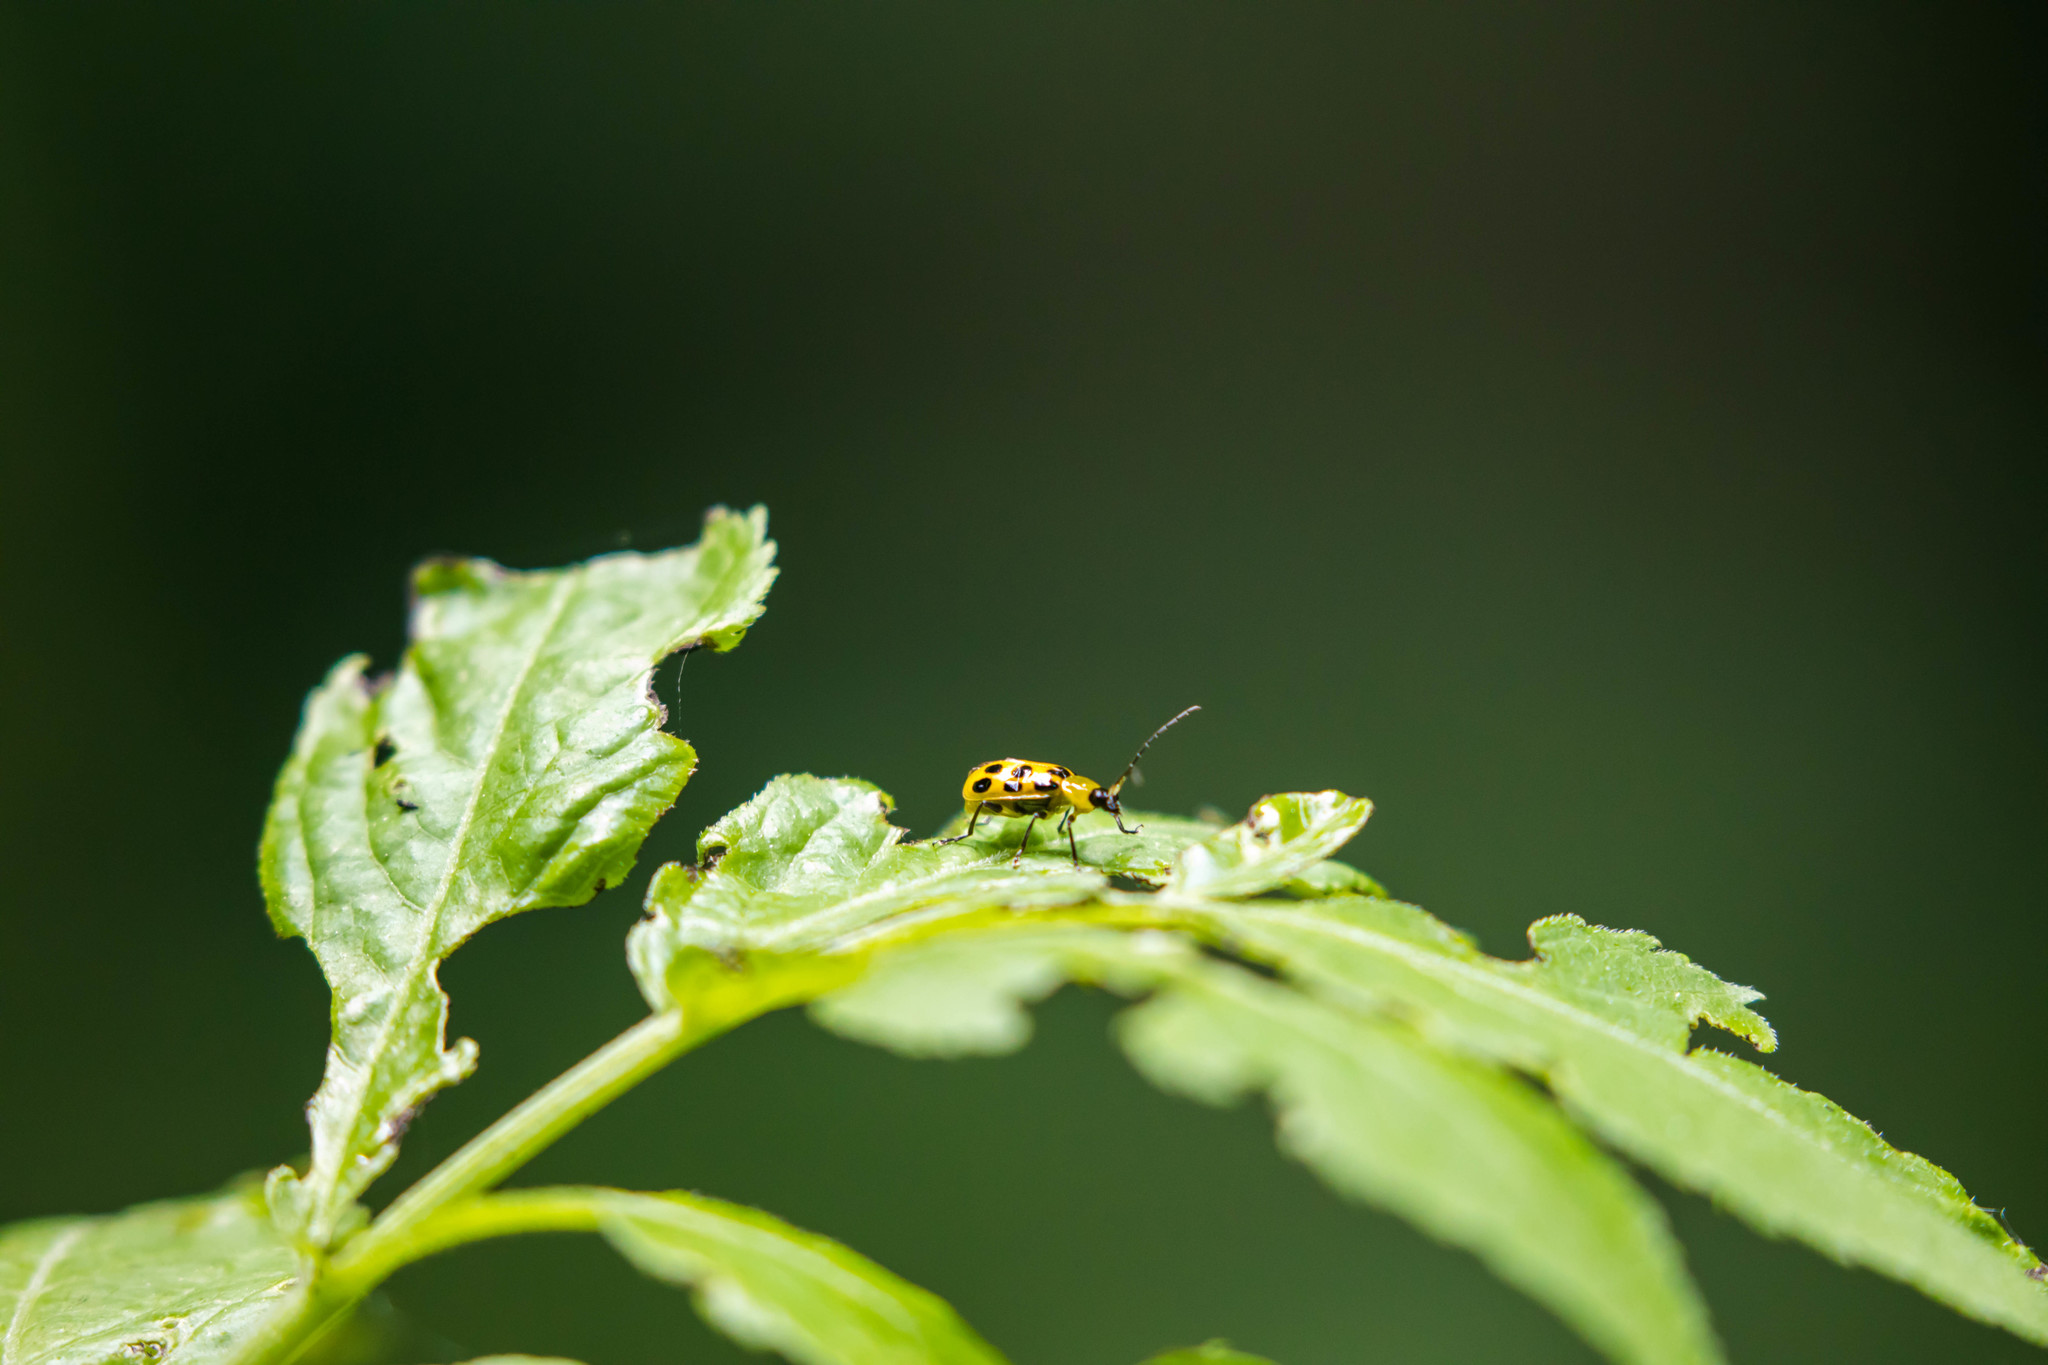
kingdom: Animalia
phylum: Arthropoda
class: Insecta
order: Coleoptera
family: Chrysomelidae
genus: Diabrotica
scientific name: Diabrotica undecimpunctata
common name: Spotted cucumber beetle
